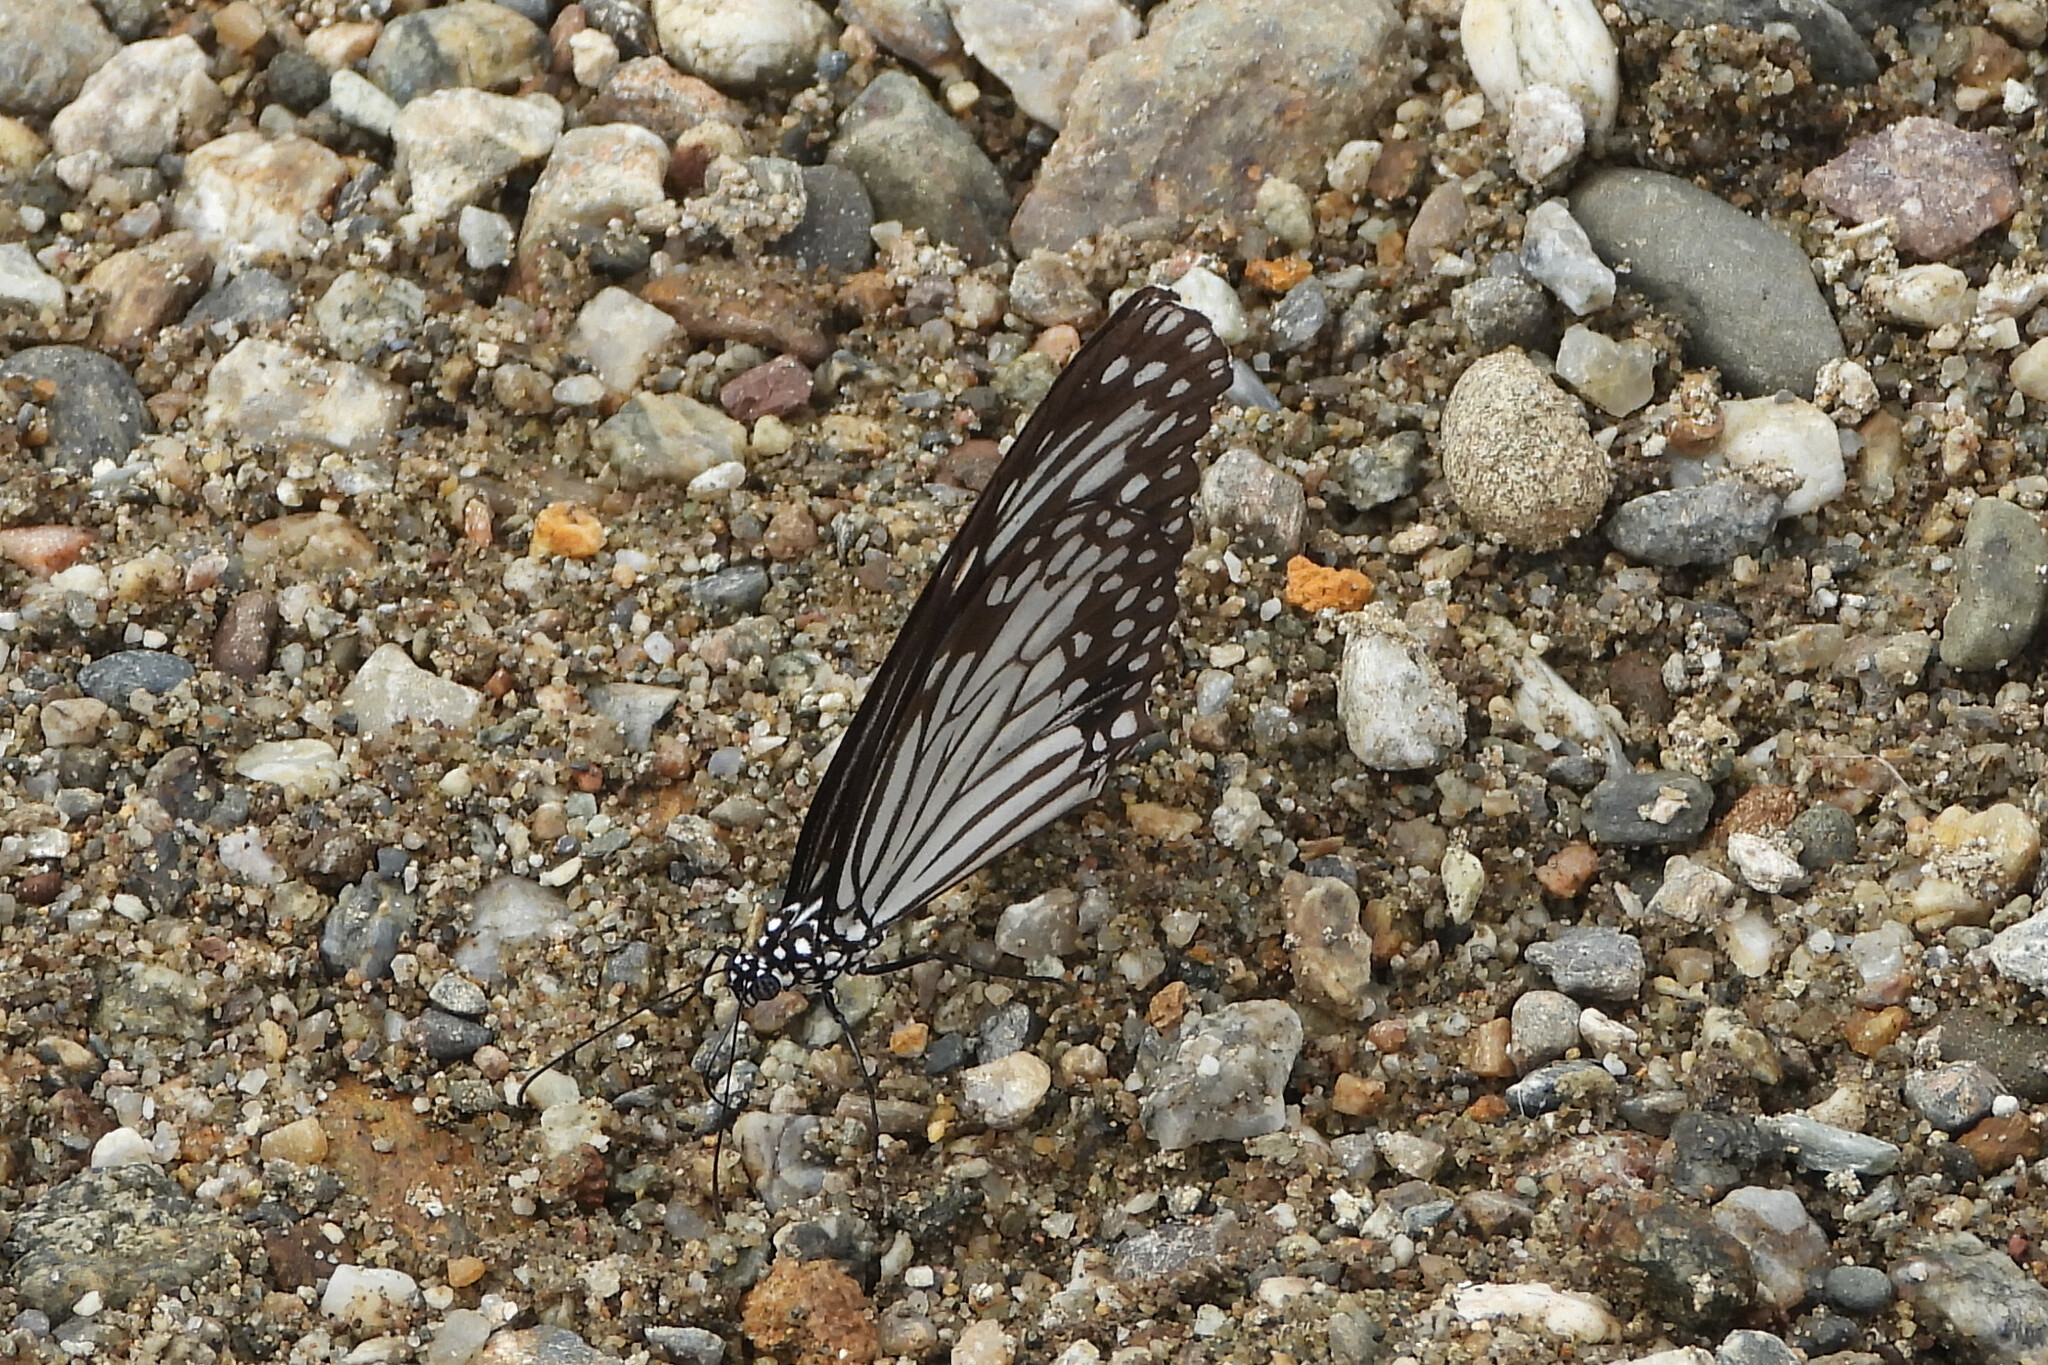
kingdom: Animalia
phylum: Arthropoda
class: Insecta
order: Lepidoptera
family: Nymphalidae
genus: Parantica
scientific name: Parantica aglea
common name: Glassy tiger
